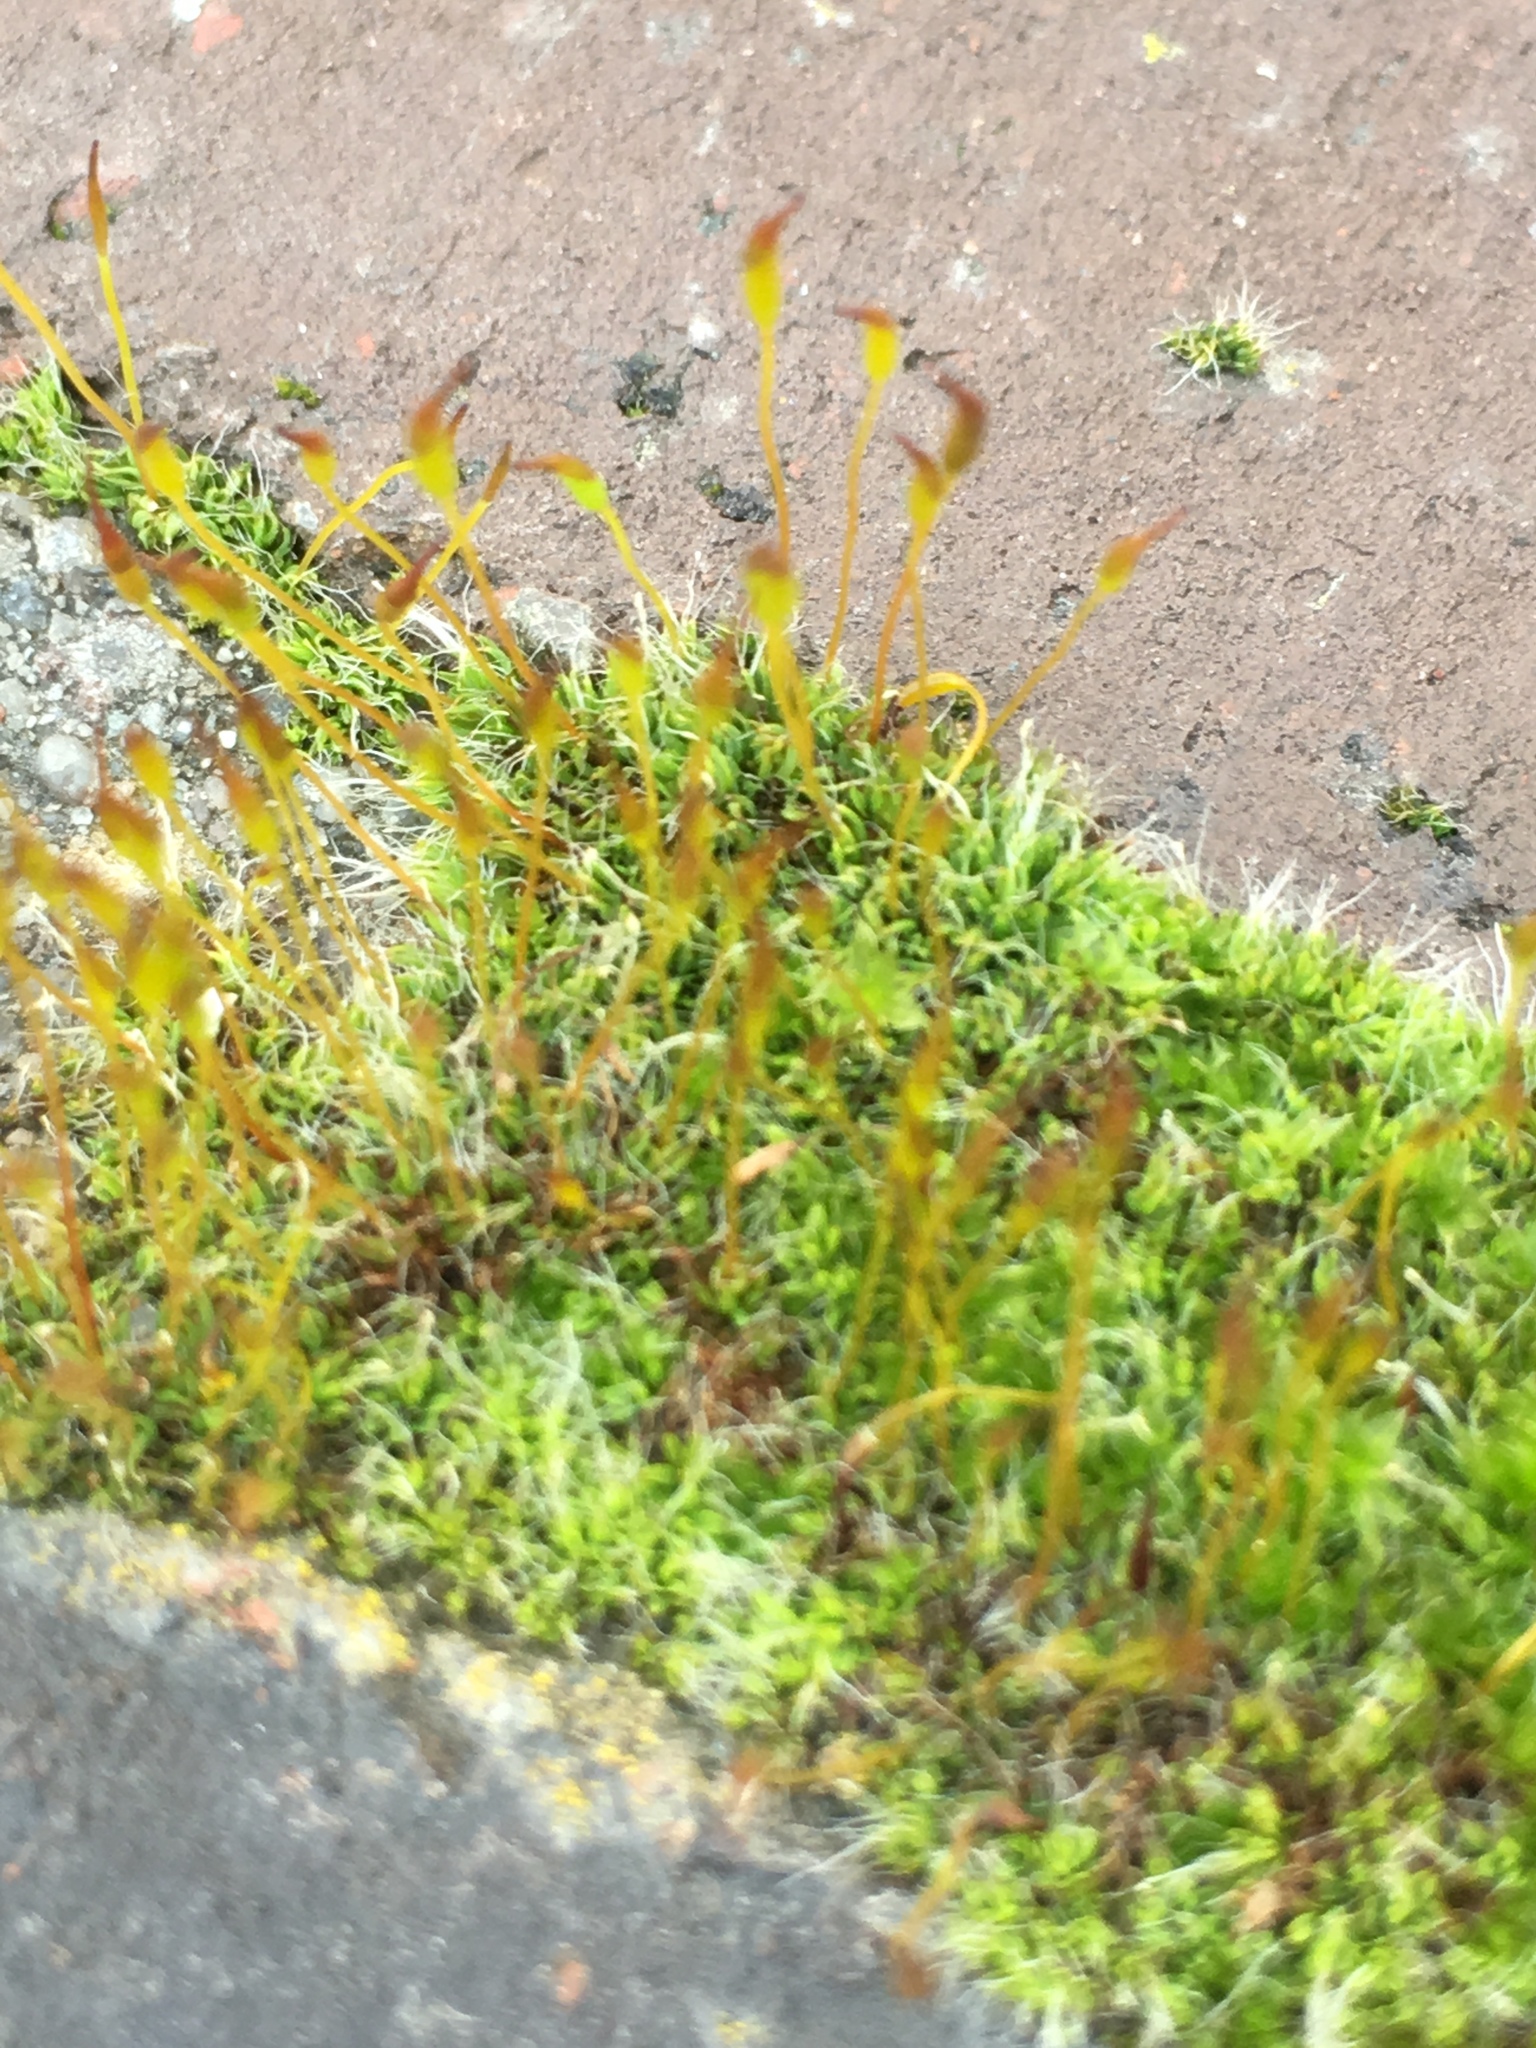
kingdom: Plantae
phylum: Bryophyta
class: Bryopsida
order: Pottiales
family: Pottiaceae
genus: Tortula
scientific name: Tortula muralis
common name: Wall screw-moss
